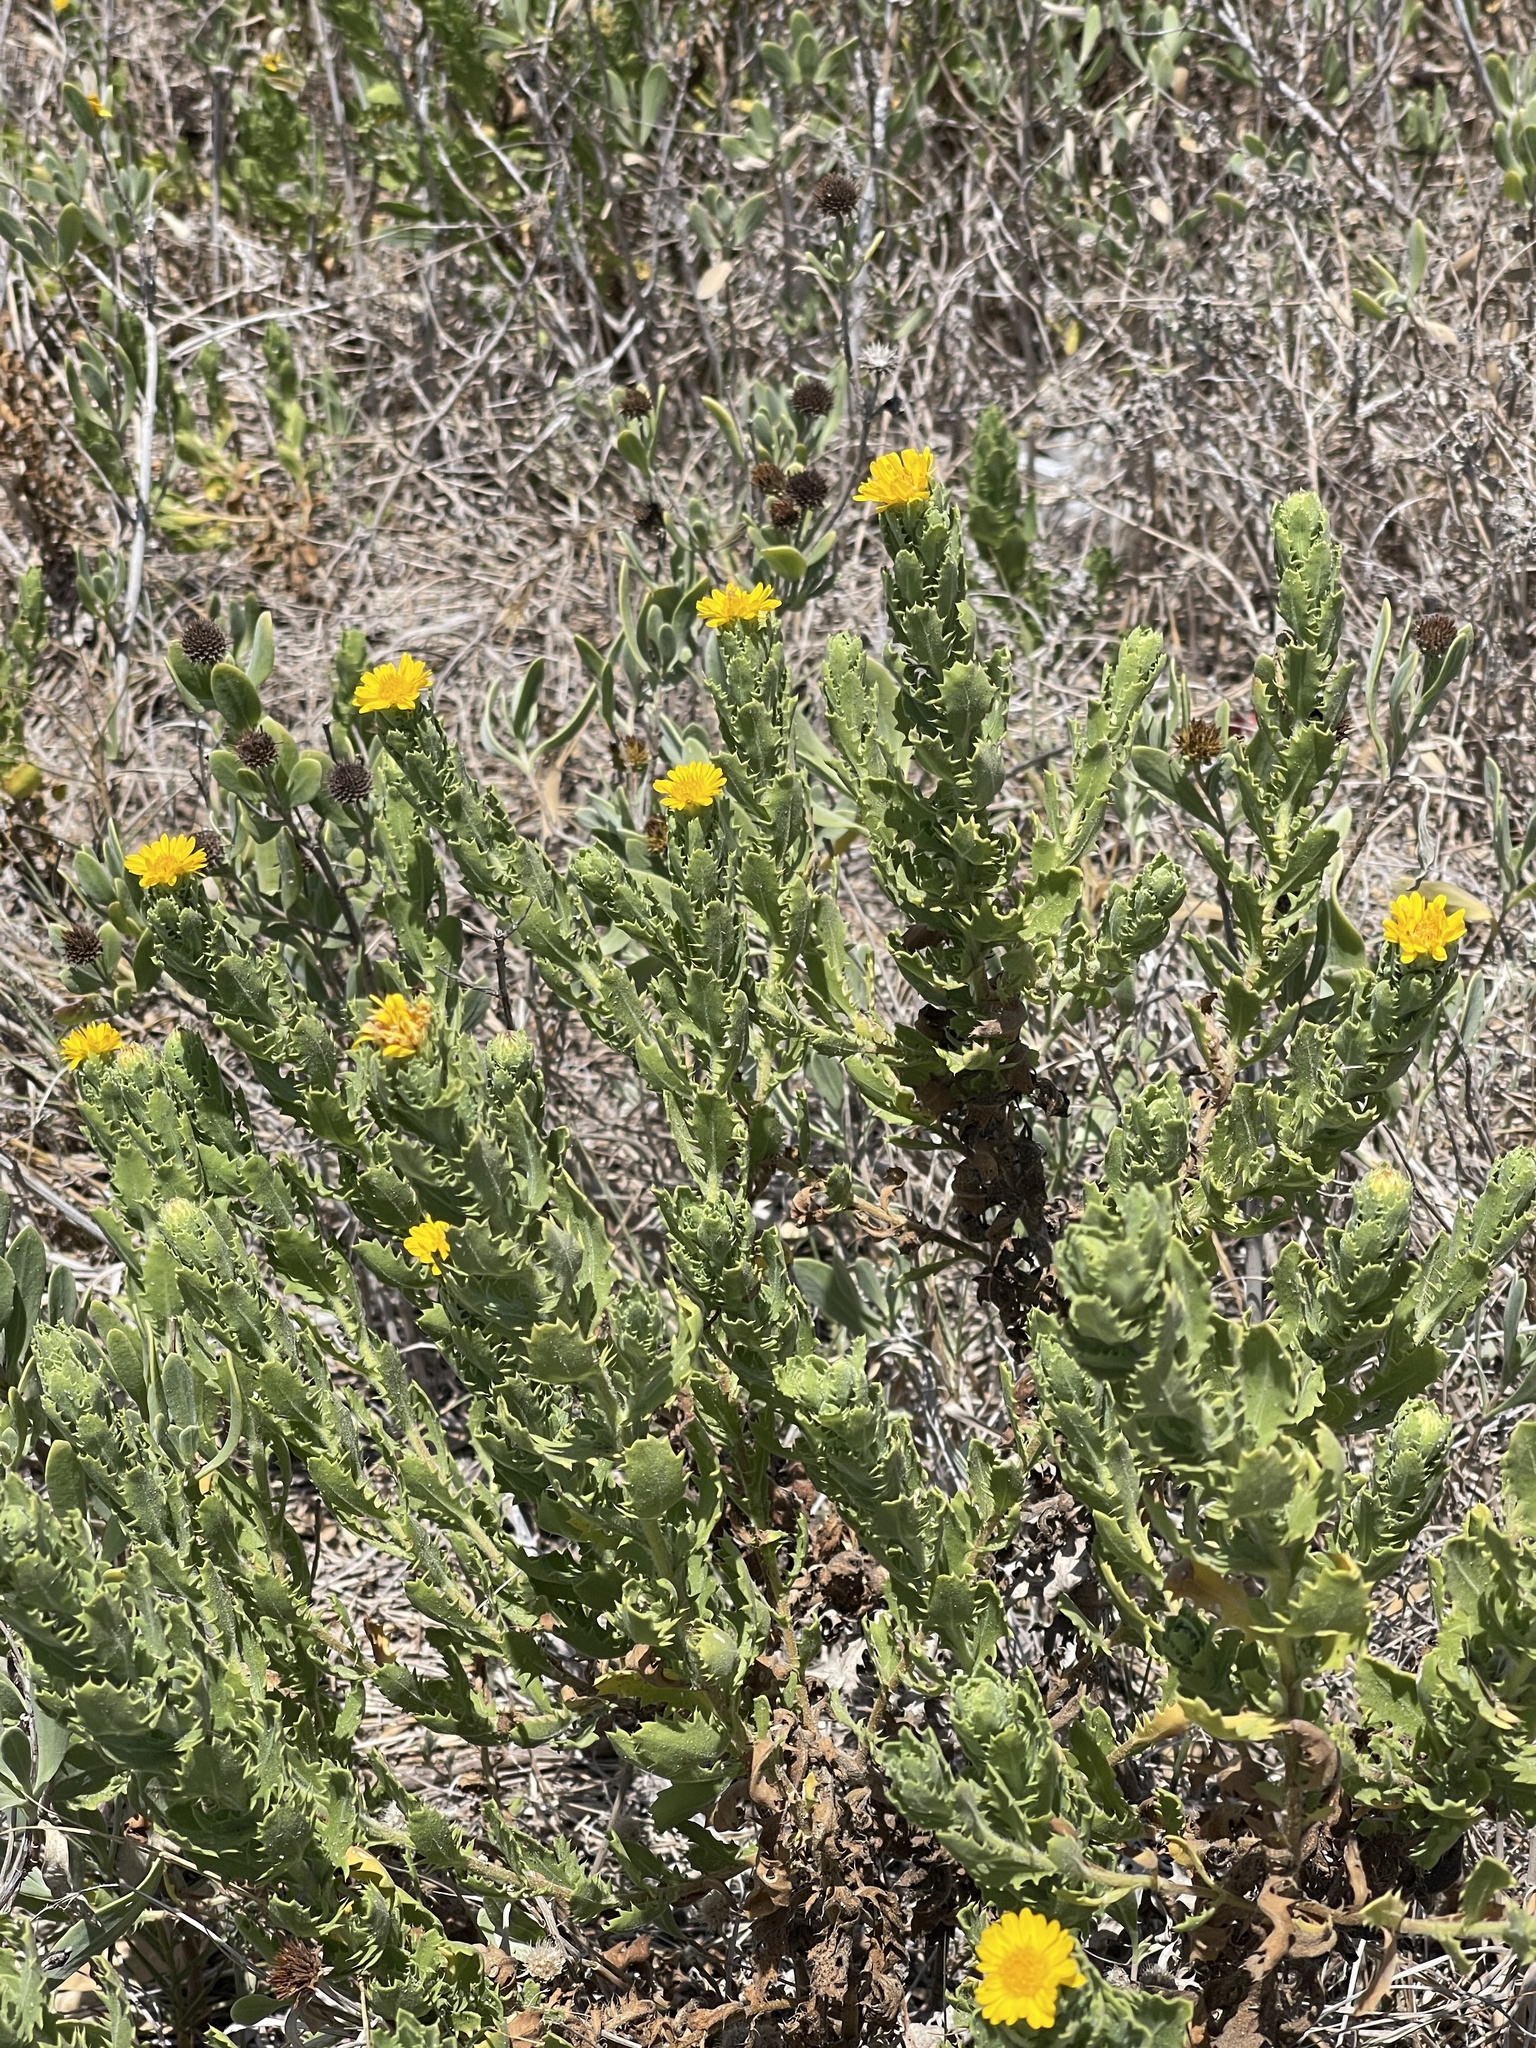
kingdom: Plantae
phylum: Tracheophyta
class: Magnoliopsida
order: Asterales
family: Asteraceae
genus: Rayjacksonia
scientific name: Rayjacksonia phyllocephala
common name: Gulf coast camphor daisy
